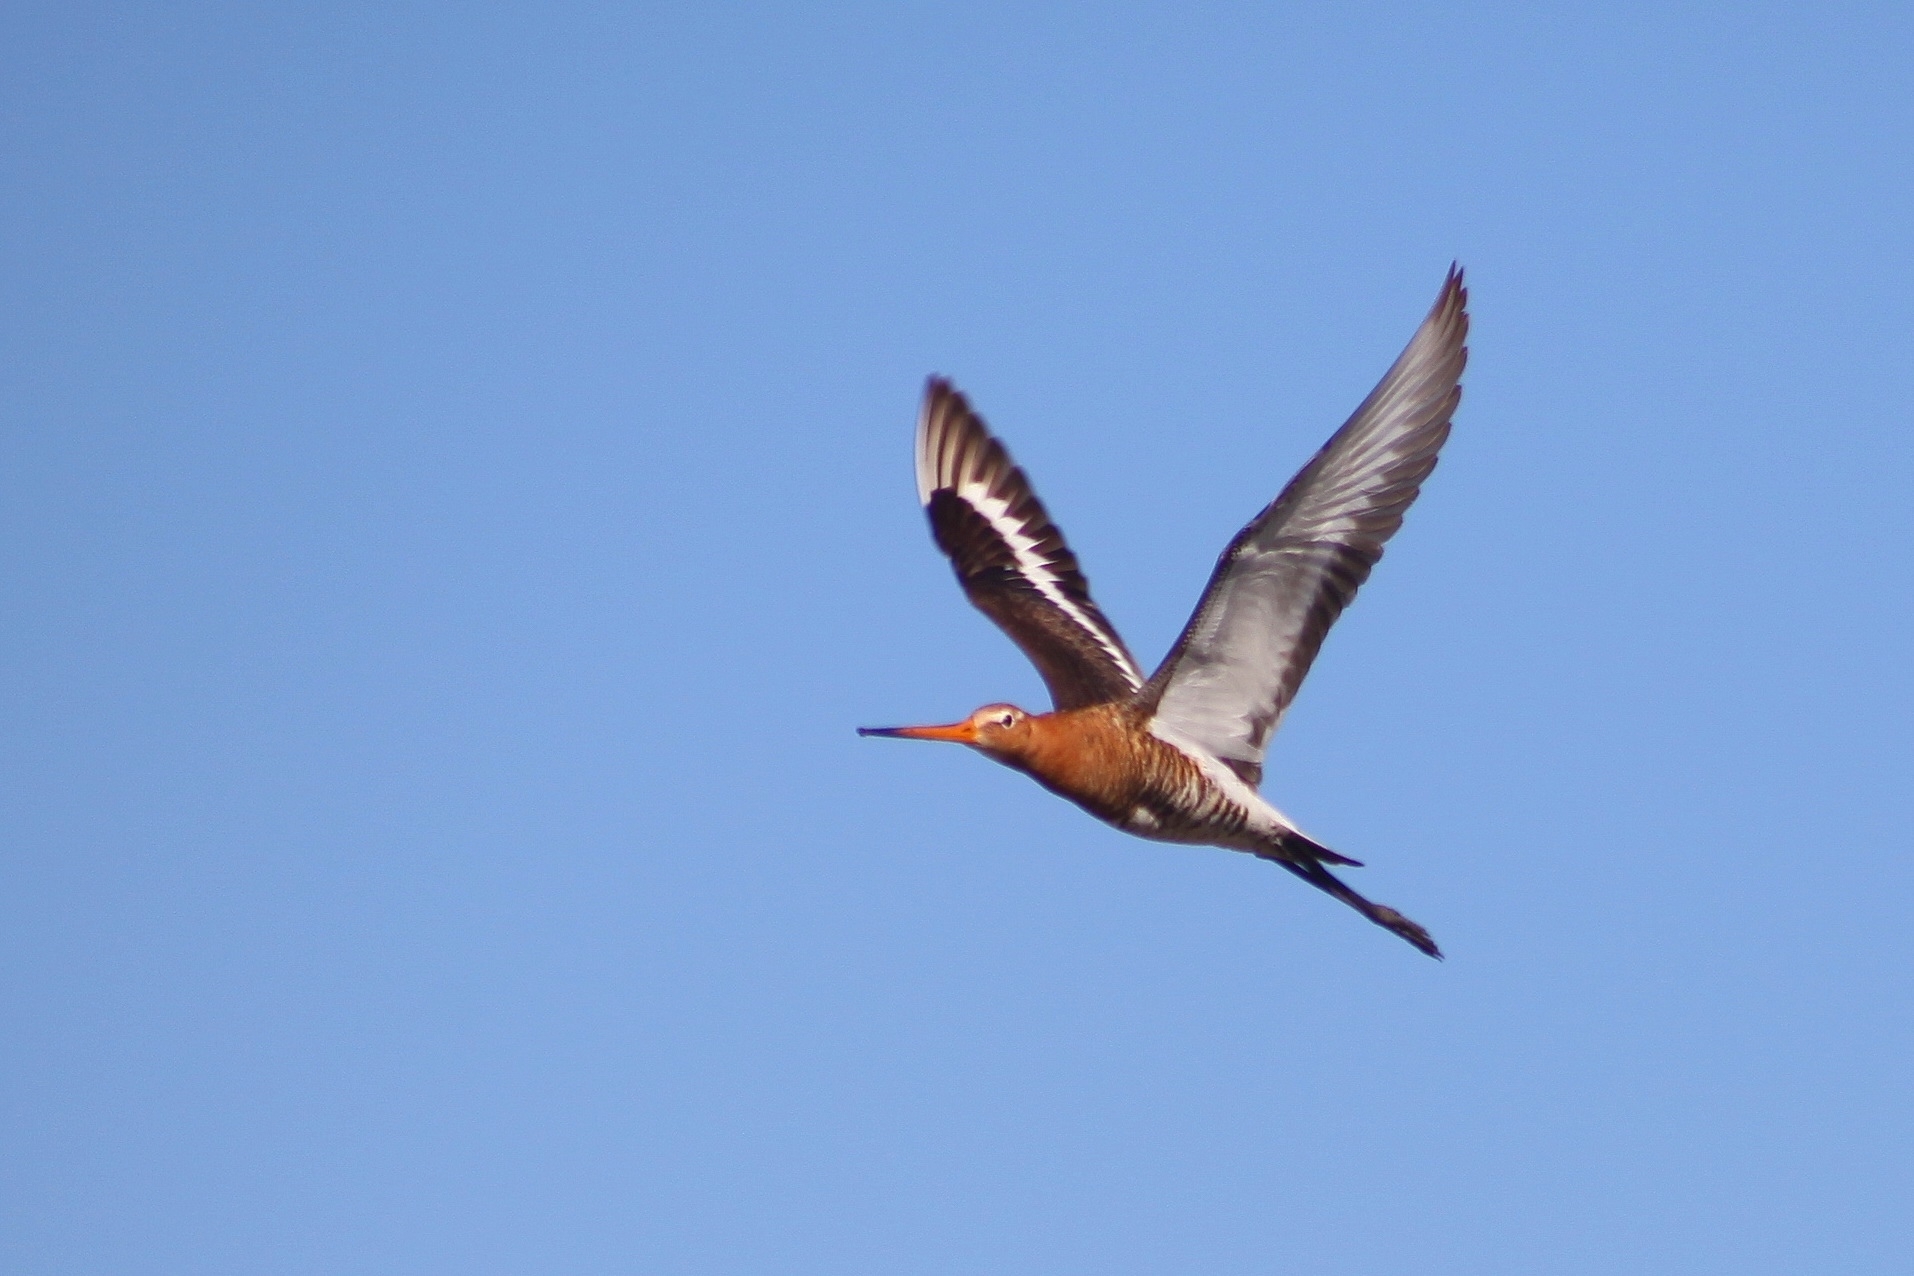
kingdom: Animalia
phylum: Chordata
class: Aves
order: Charadriiformes
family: Scolopacidae
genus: Limosa
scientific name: Limosa limosa
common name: Black-tailed godwit
